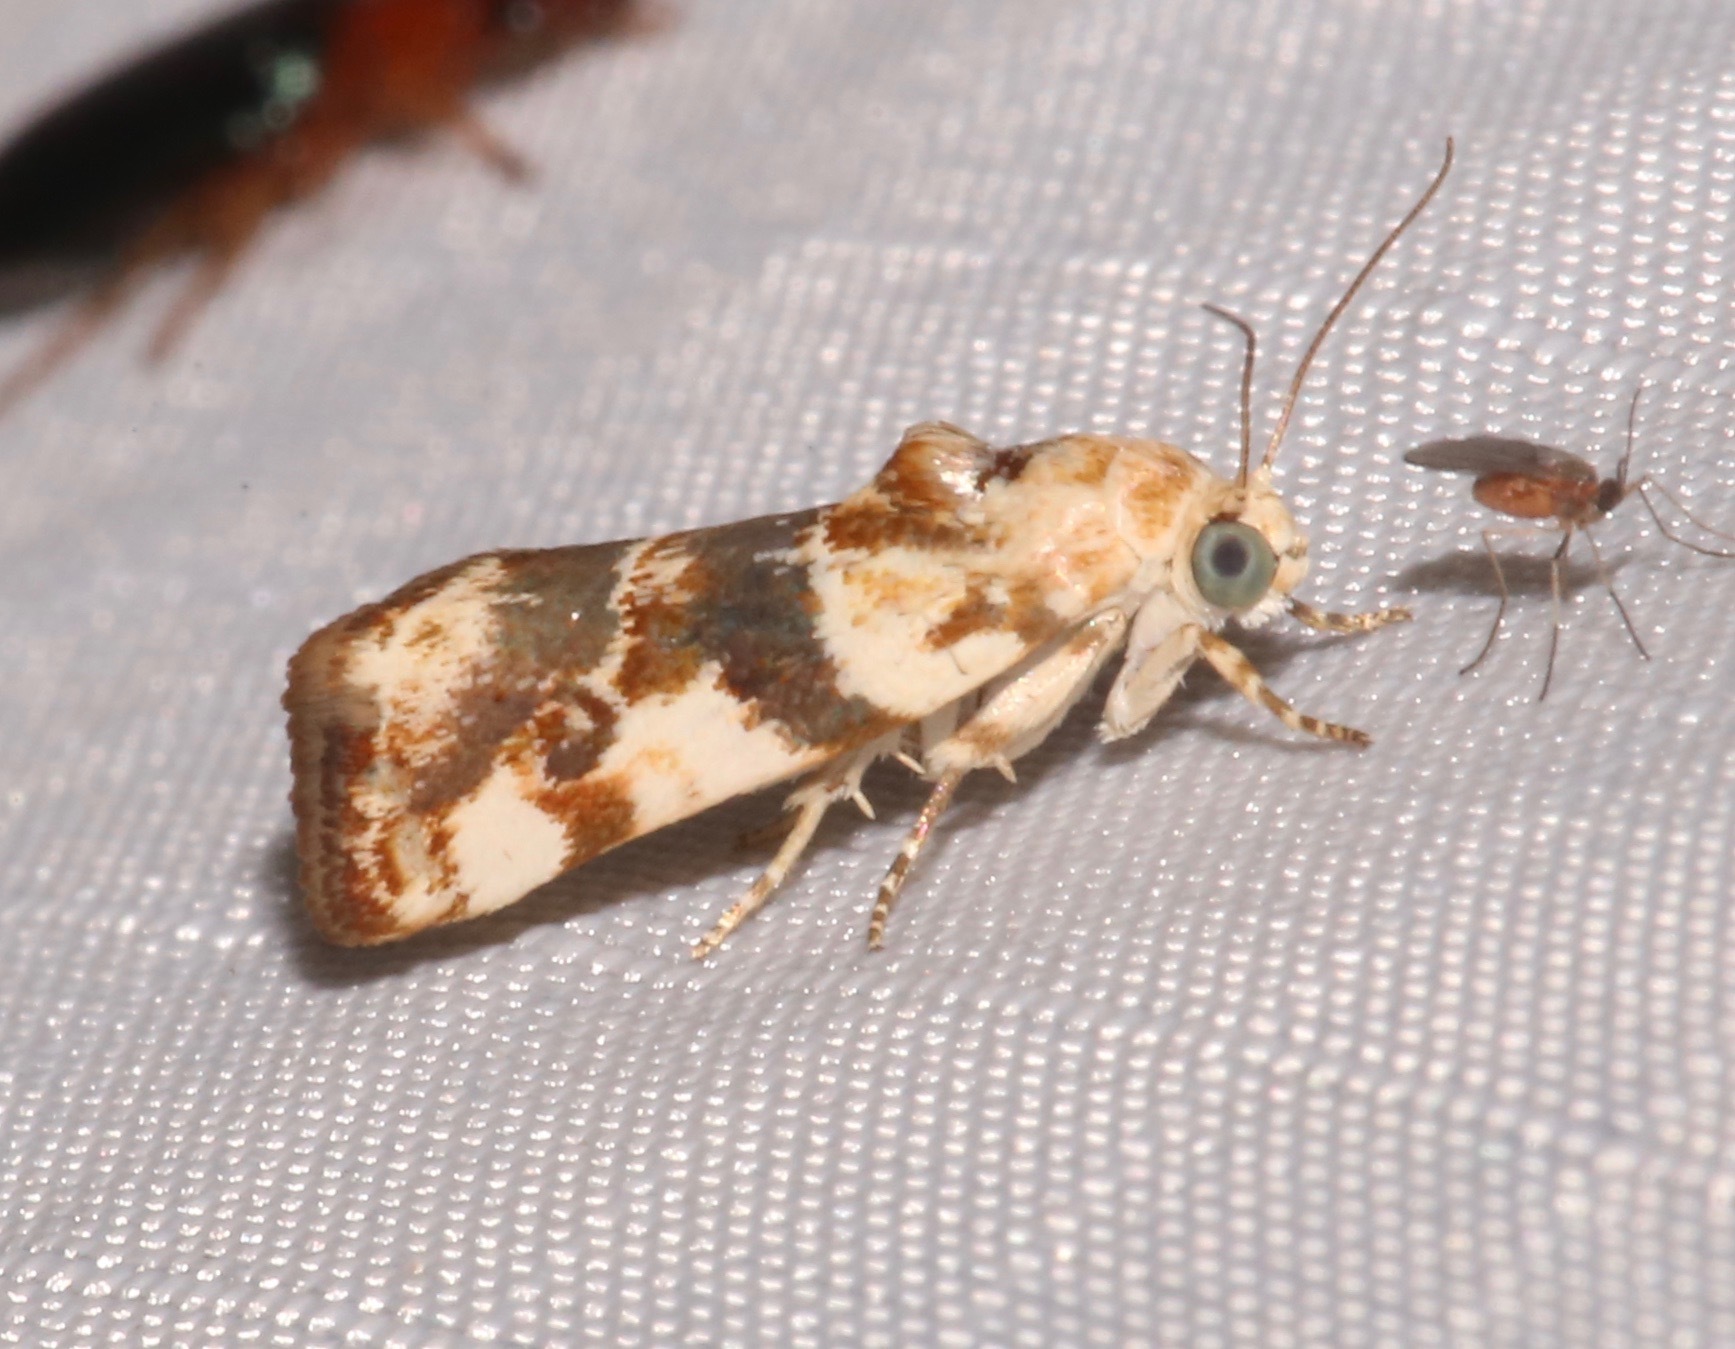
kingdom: Animalia
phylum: Arthropoda
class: Insecta
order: Lepidoptera
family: Noctuidae
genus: Acontia
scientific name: Acontia obatra
